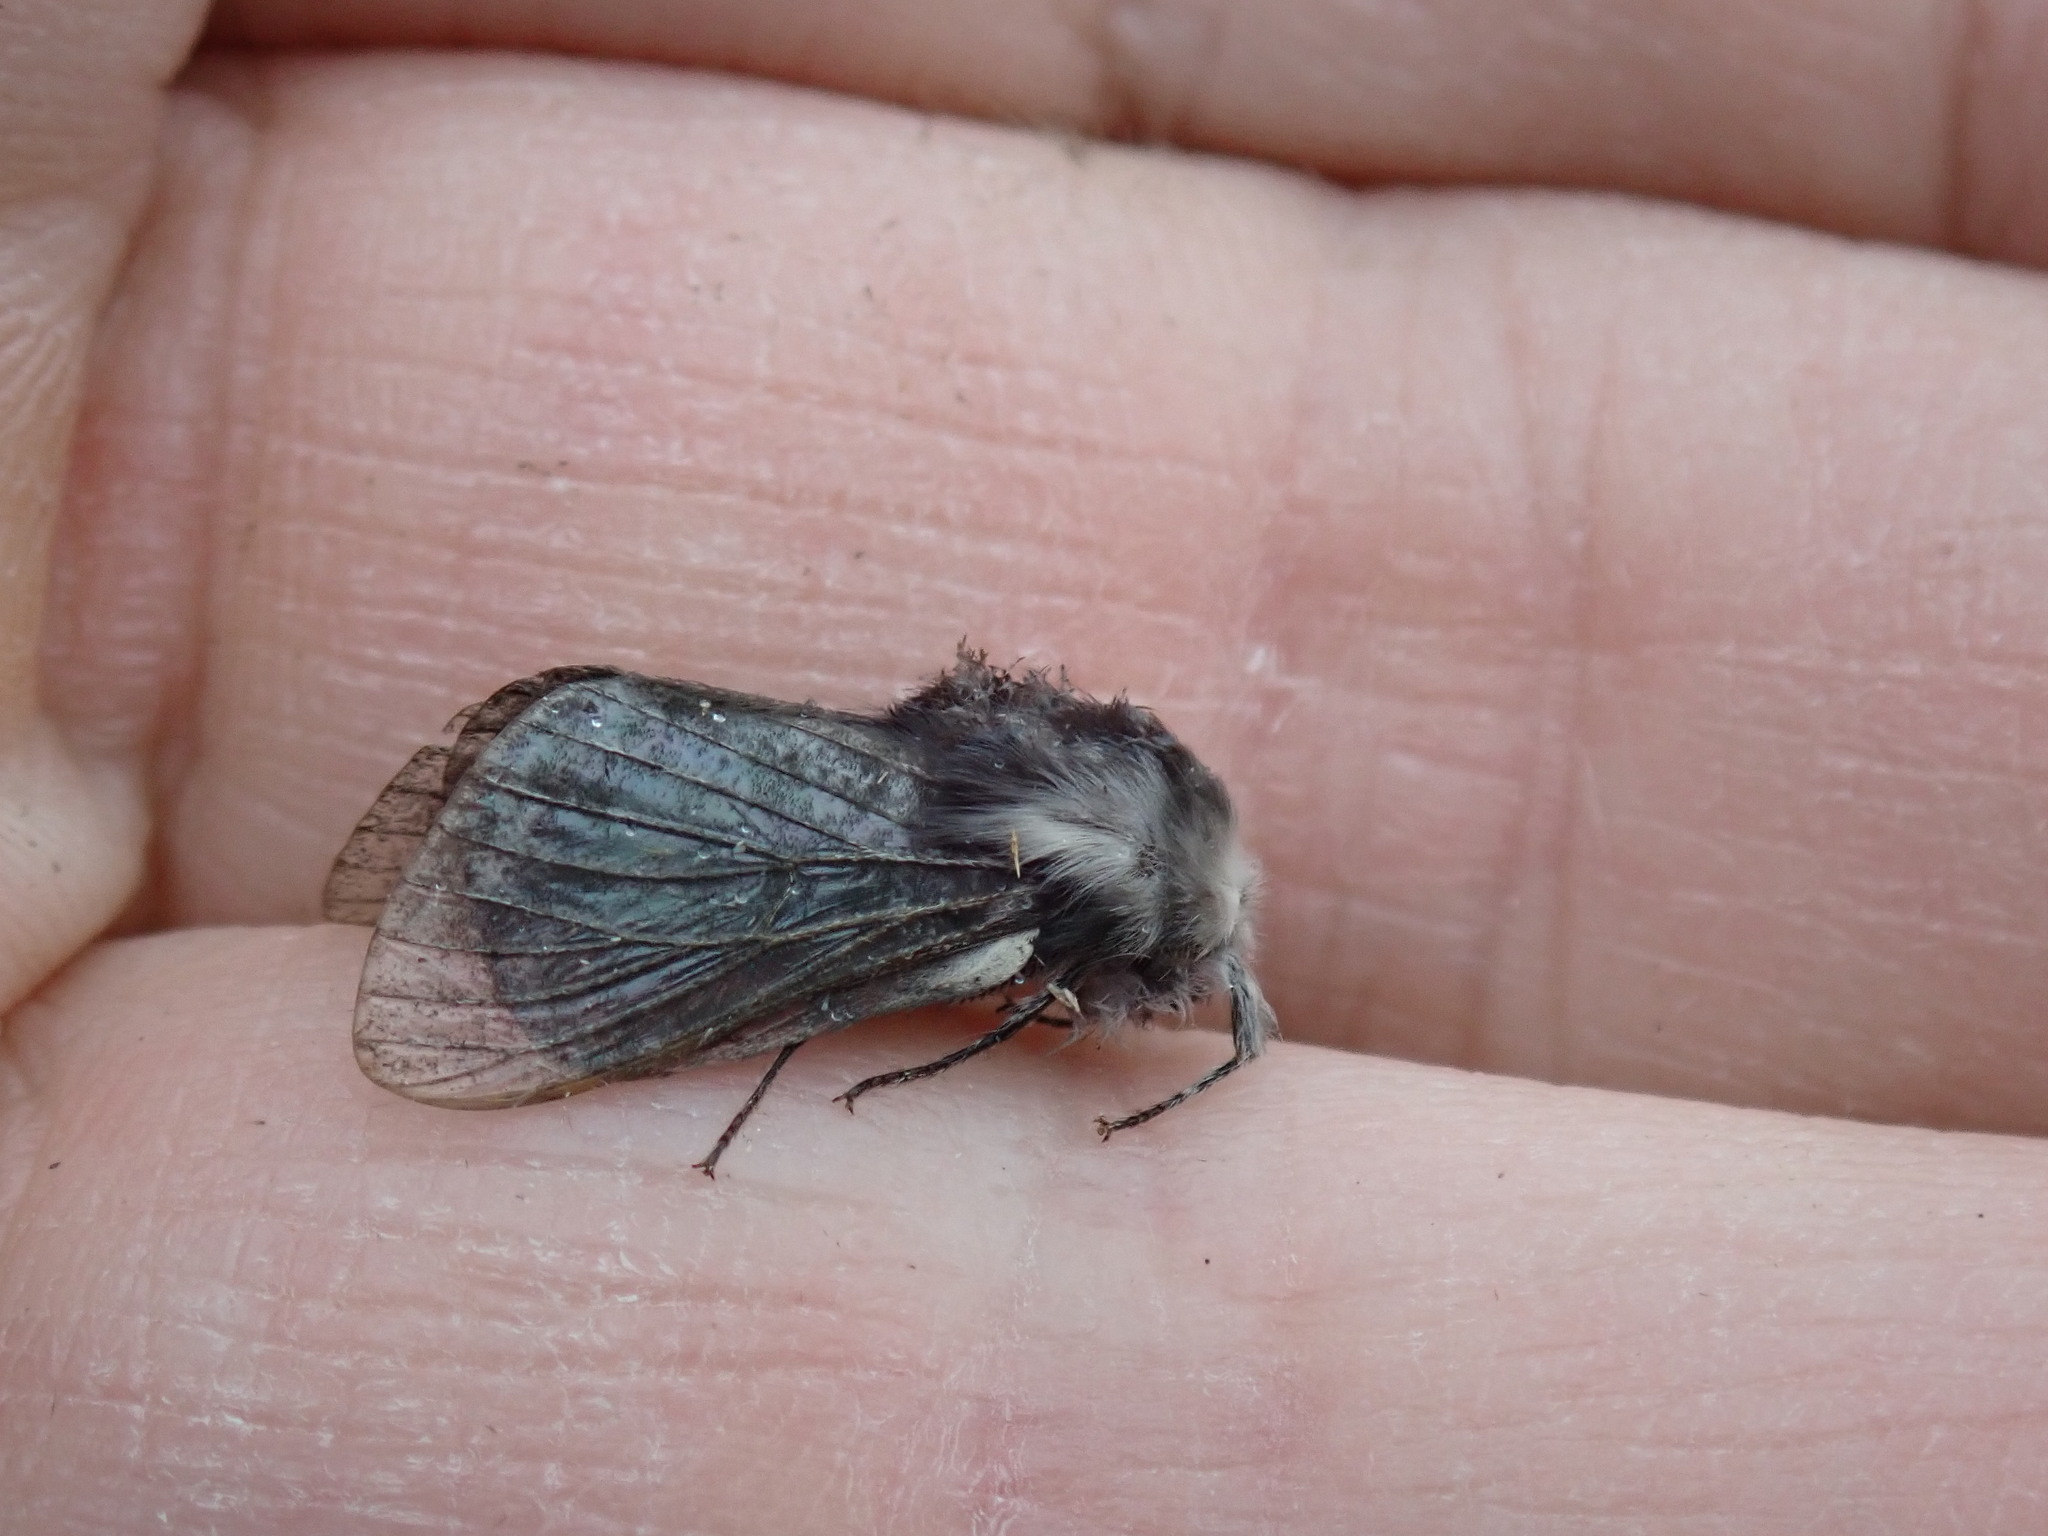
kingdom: Animalia
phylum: Arthropoda
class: Insecta
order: Lepidoptera
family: Lasiocampidae
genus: Tolype
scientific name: Tolype laricis
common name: Larch tolype moth
